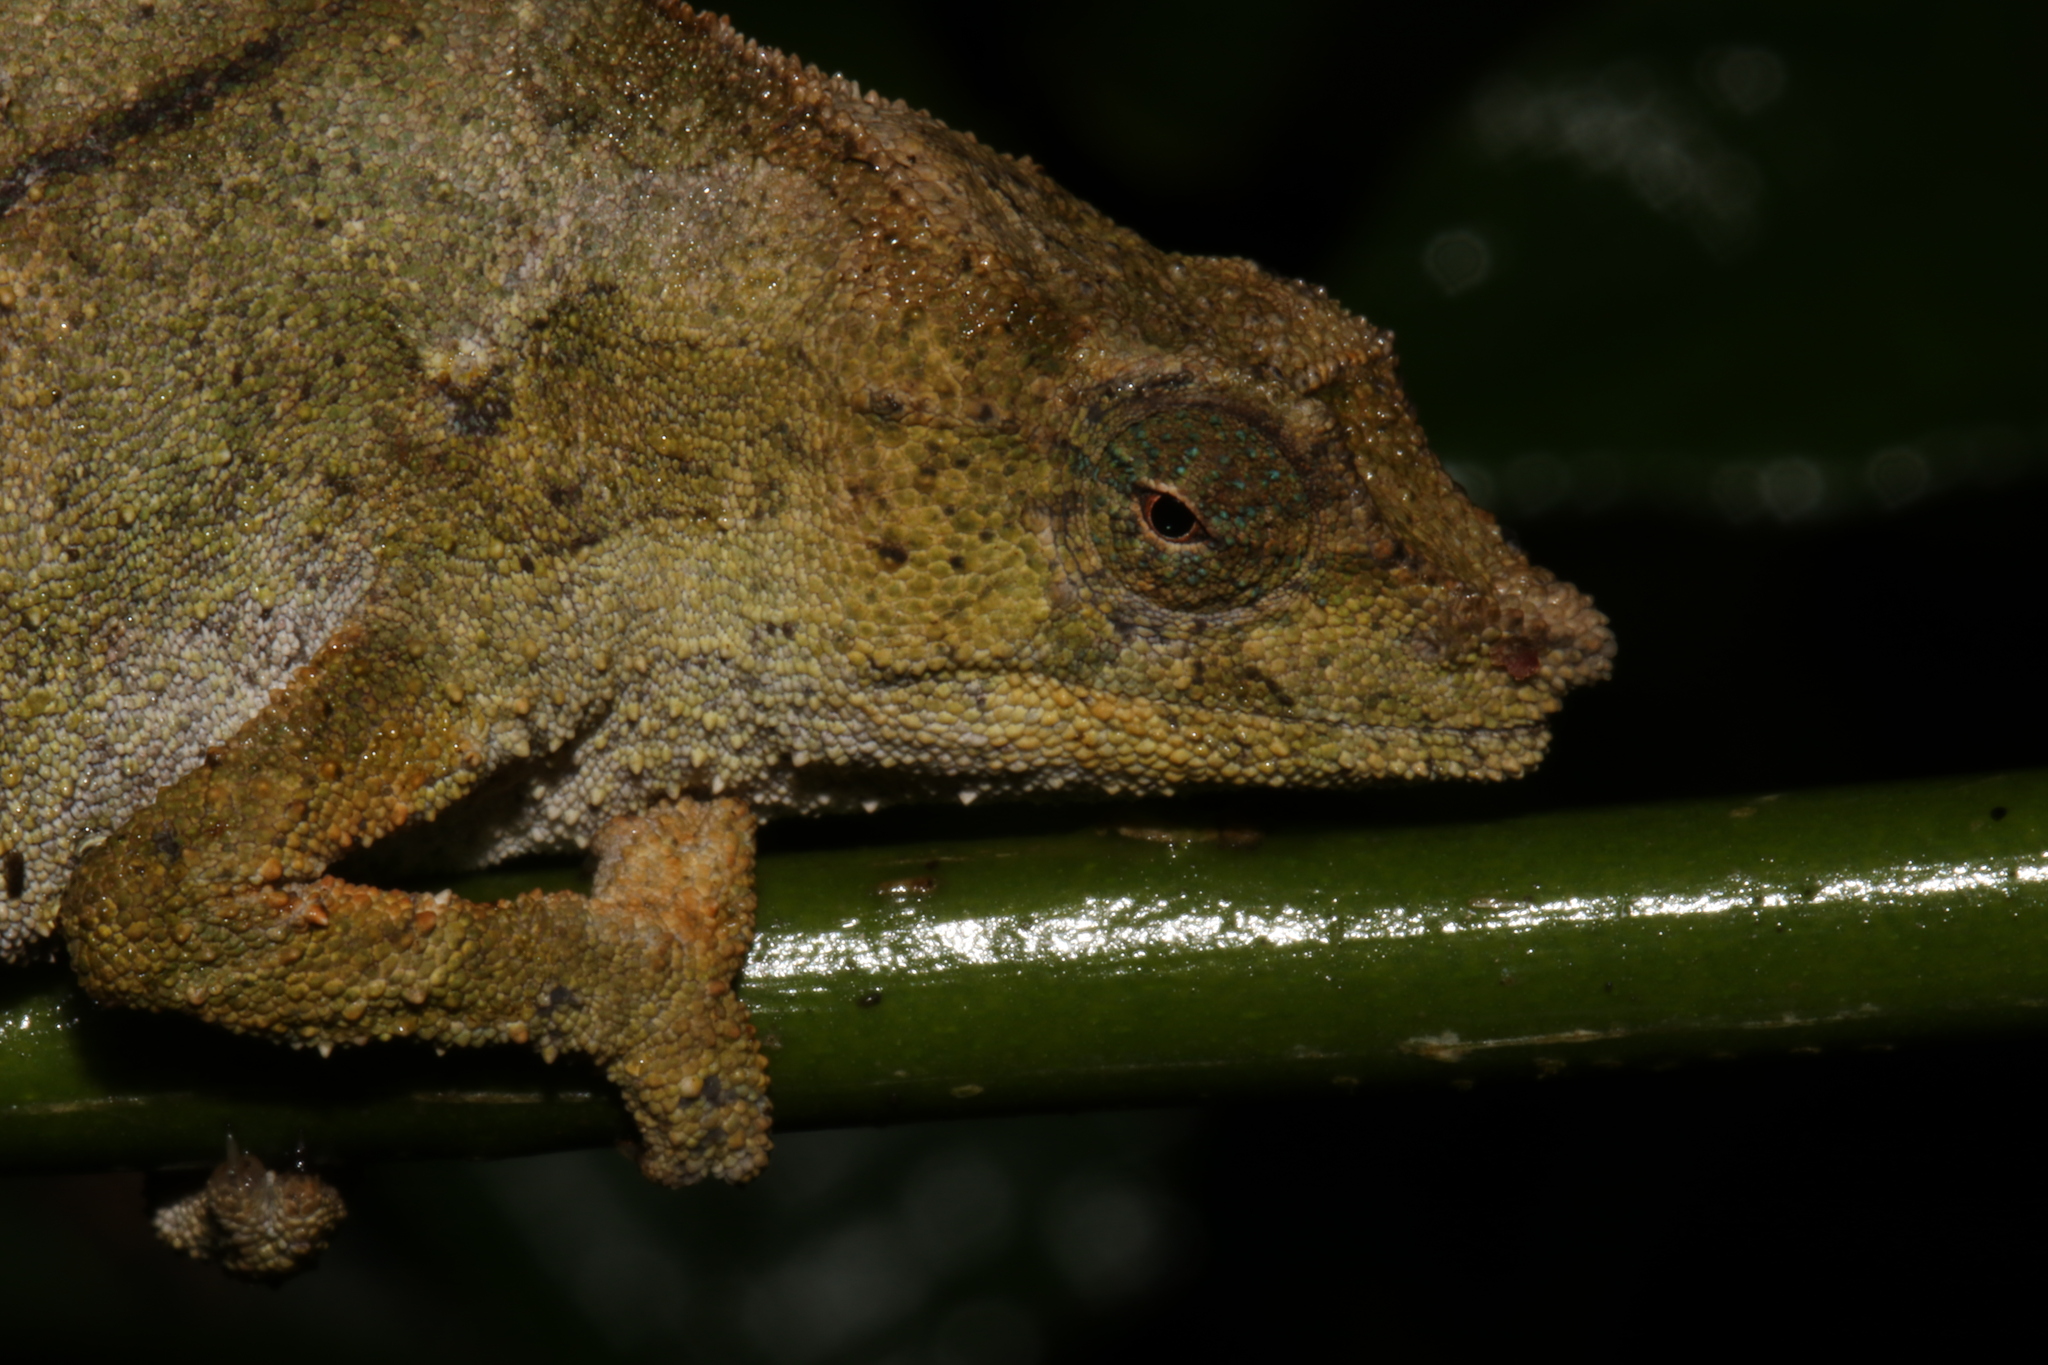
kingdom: Animalia
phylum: Chordata
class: Squamata
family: Chamaeleonidae
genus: Rhampholeon
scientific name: Rhampholeon nchisiensis
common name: South african stumptail chameleon
